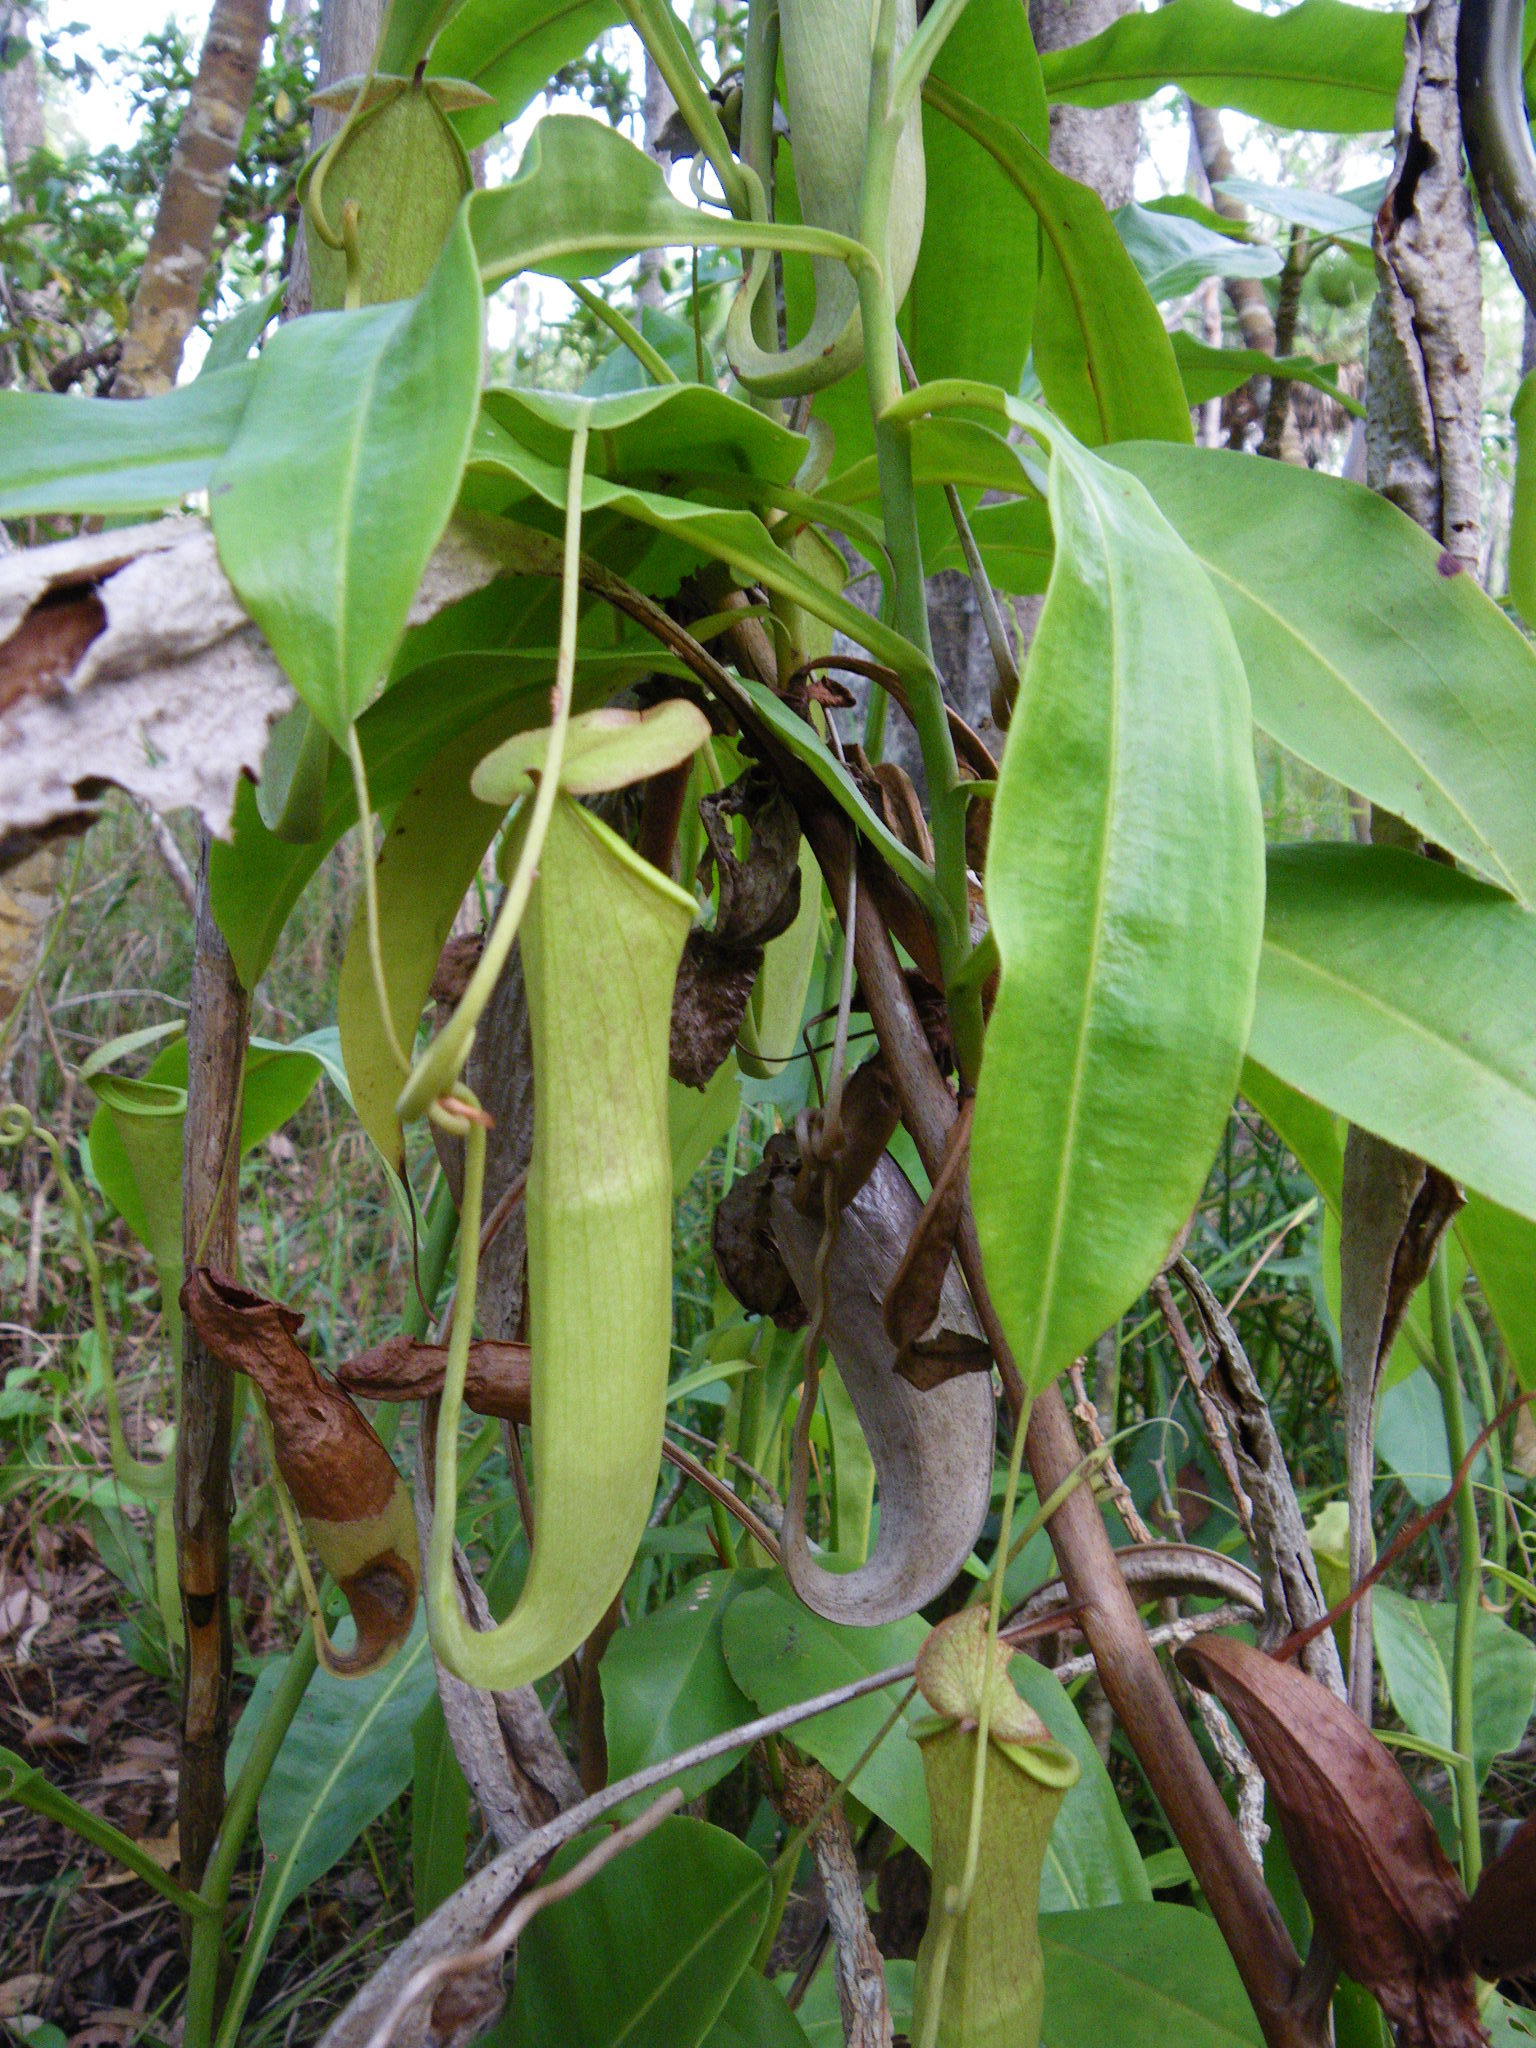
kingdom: Plantae
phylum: Tracheophyta
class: Magnoliopsida
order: Caryophyllales
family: Nepenthaceae
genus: Nepenthes
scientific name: Nepenthes mirabilis
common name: Tropical pitcherplant
